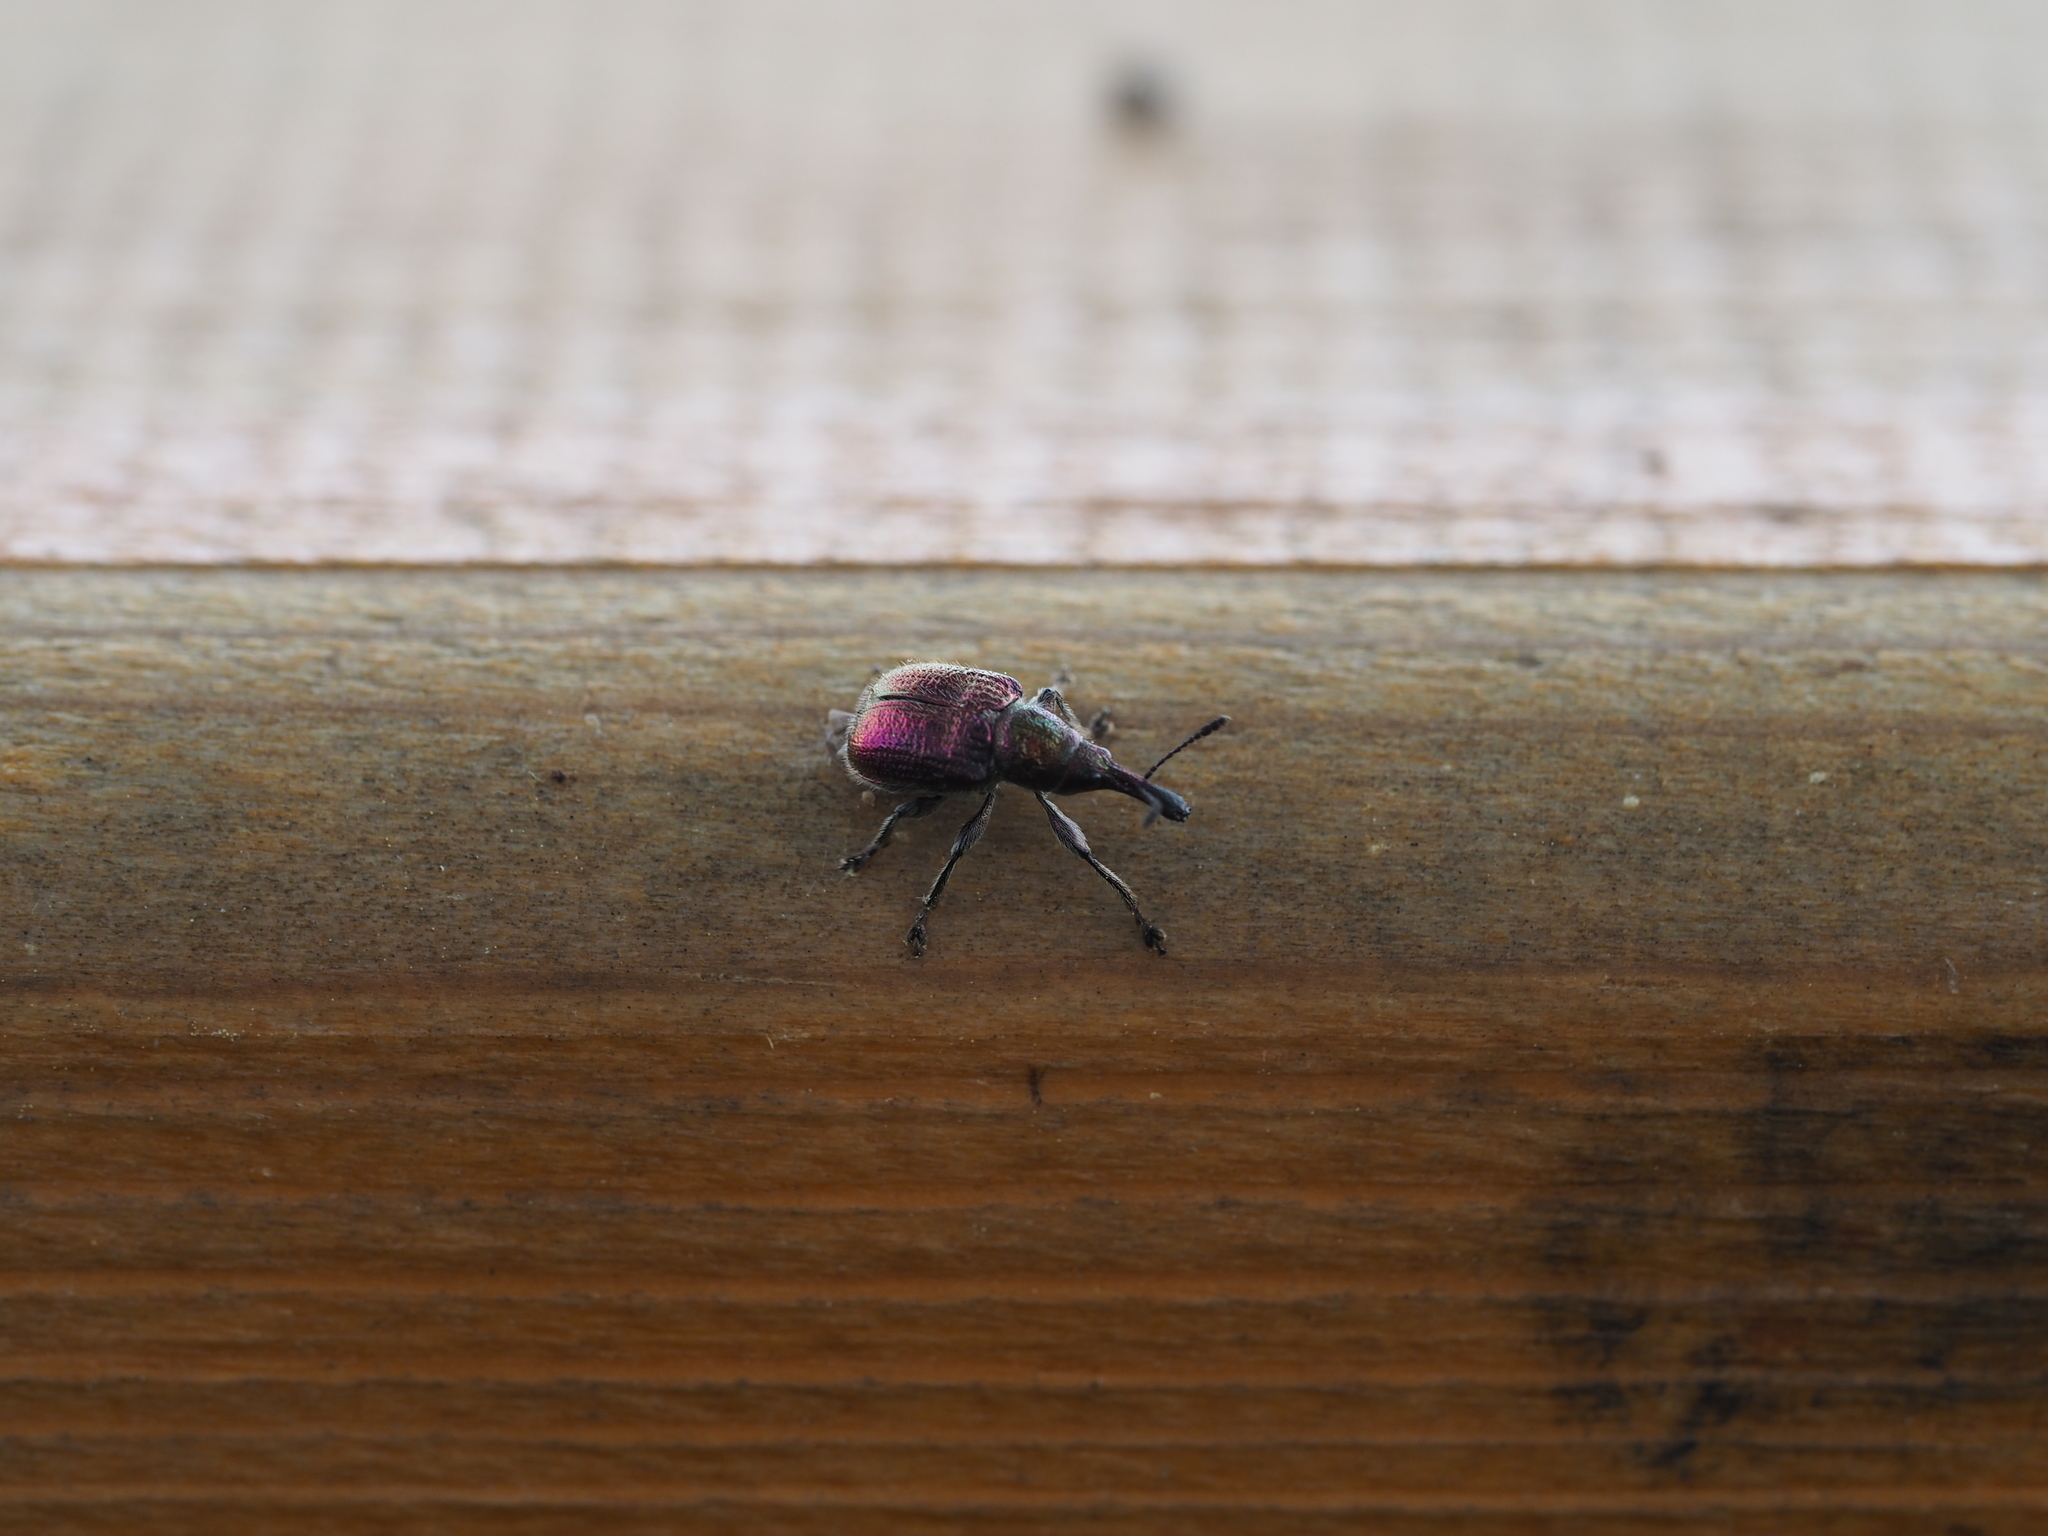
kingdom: Animalia
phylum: Arthropoda
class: Insecta
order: Coleoptera
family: Attelabidae
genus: Rhynchites
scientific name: Rhynchites bacchus
